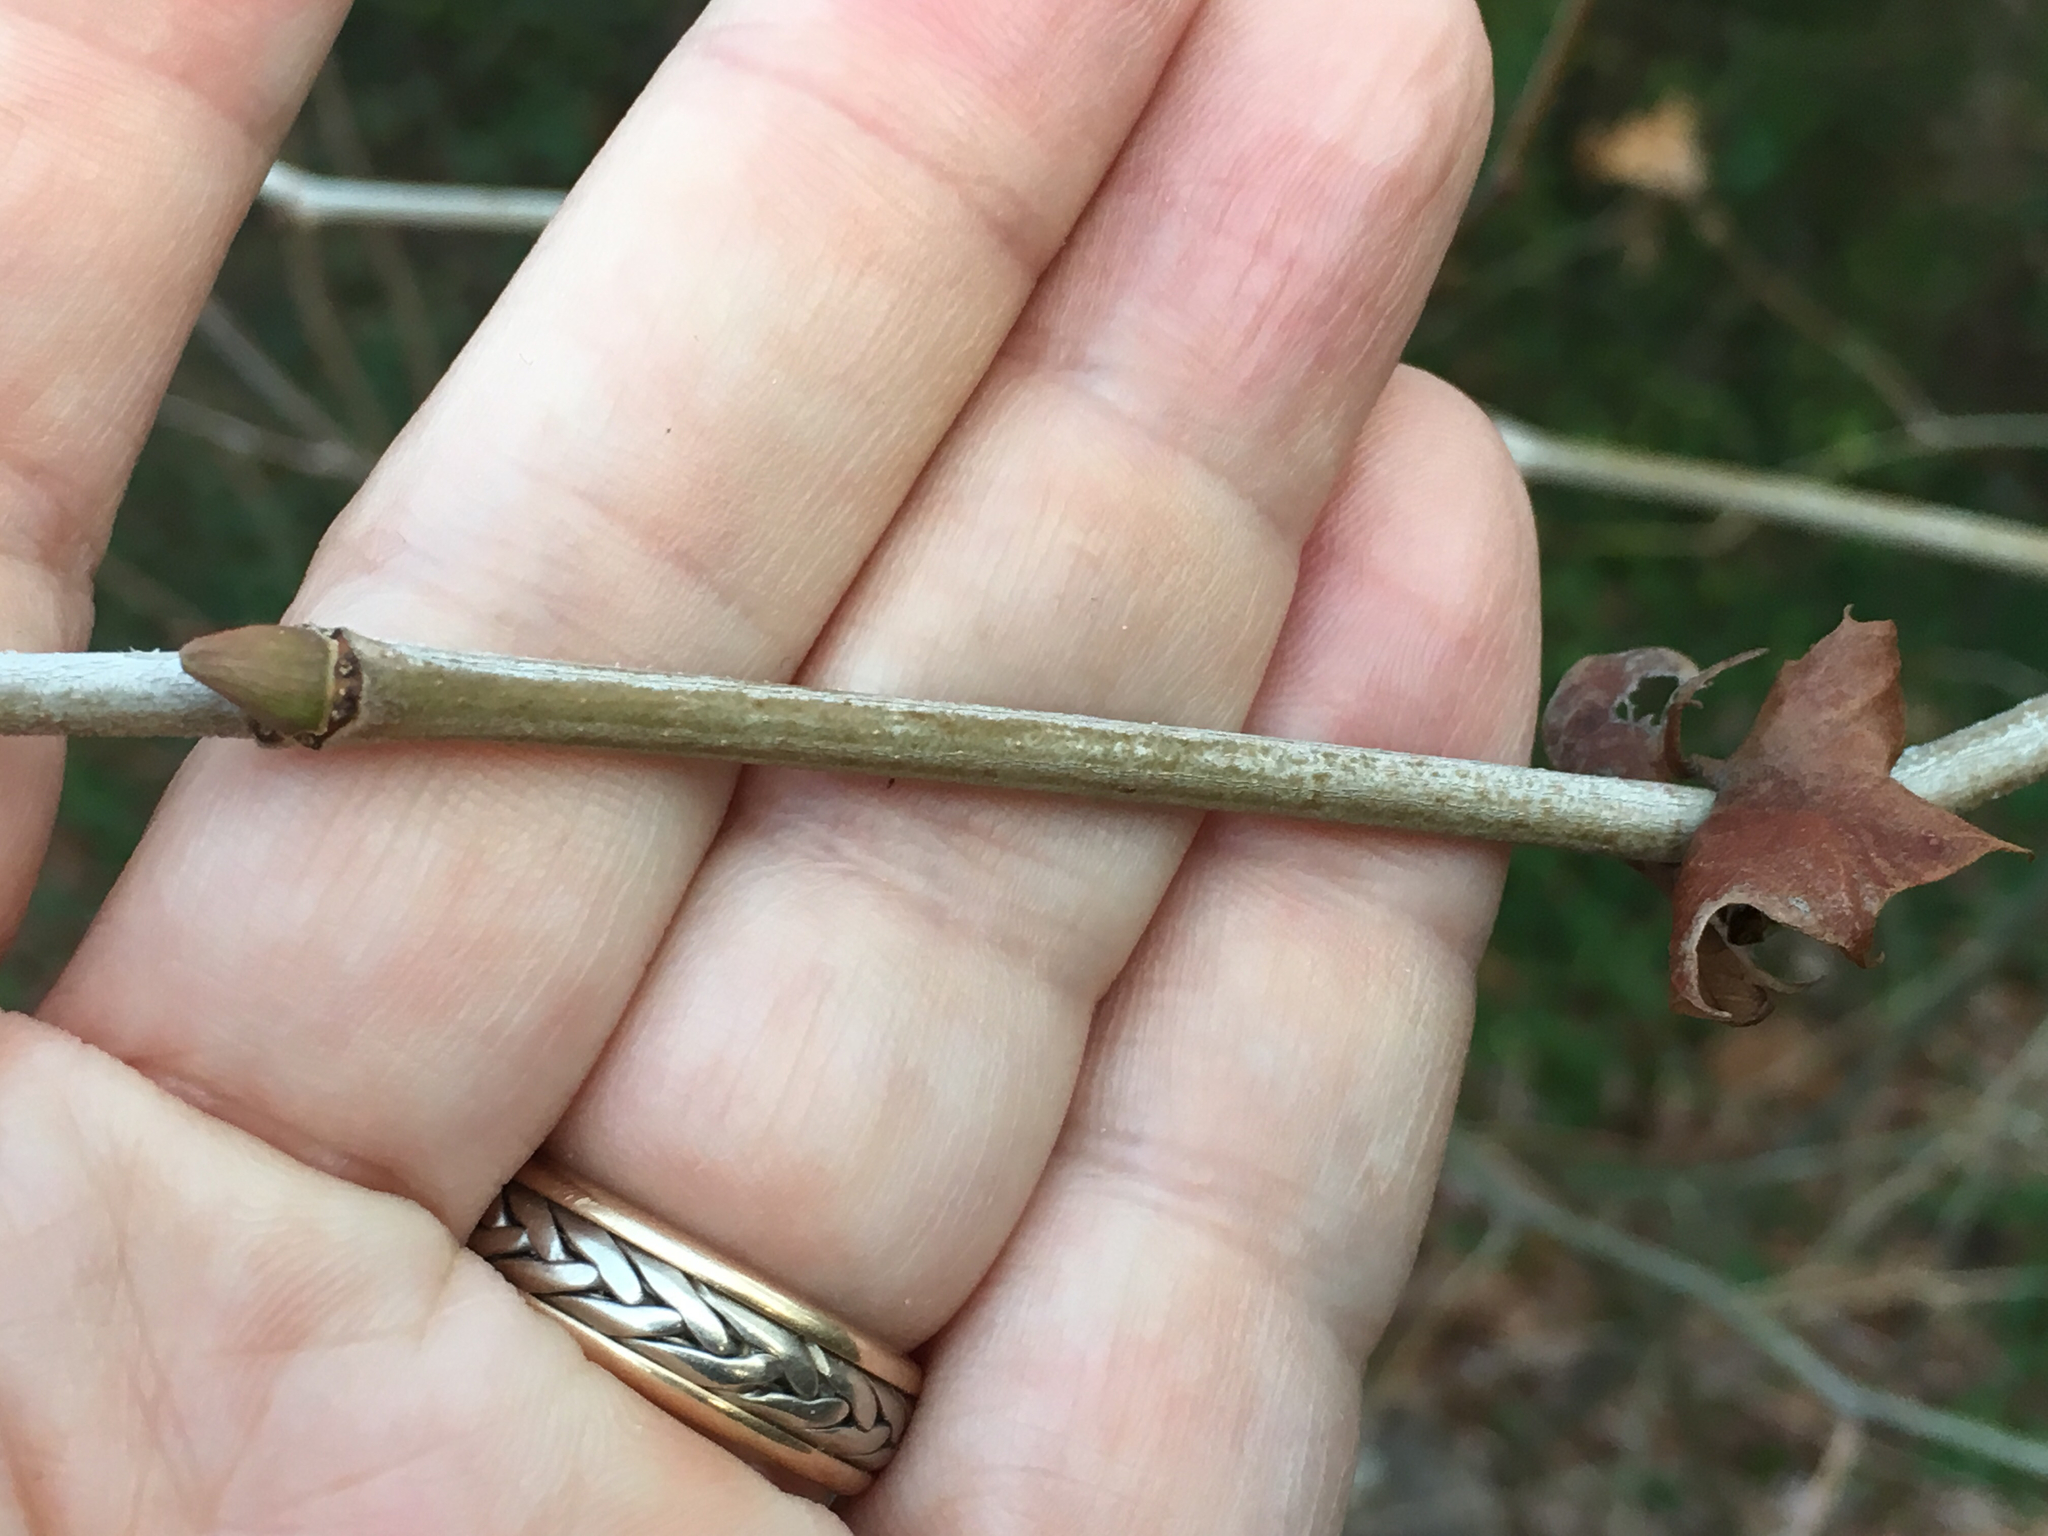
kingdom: Plantae
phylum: Tracheophyta
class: Magnoliopsida
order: Proteales
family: Platanaceae
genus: Platanus
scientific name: Platanus occidentalis
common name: American sycamore
